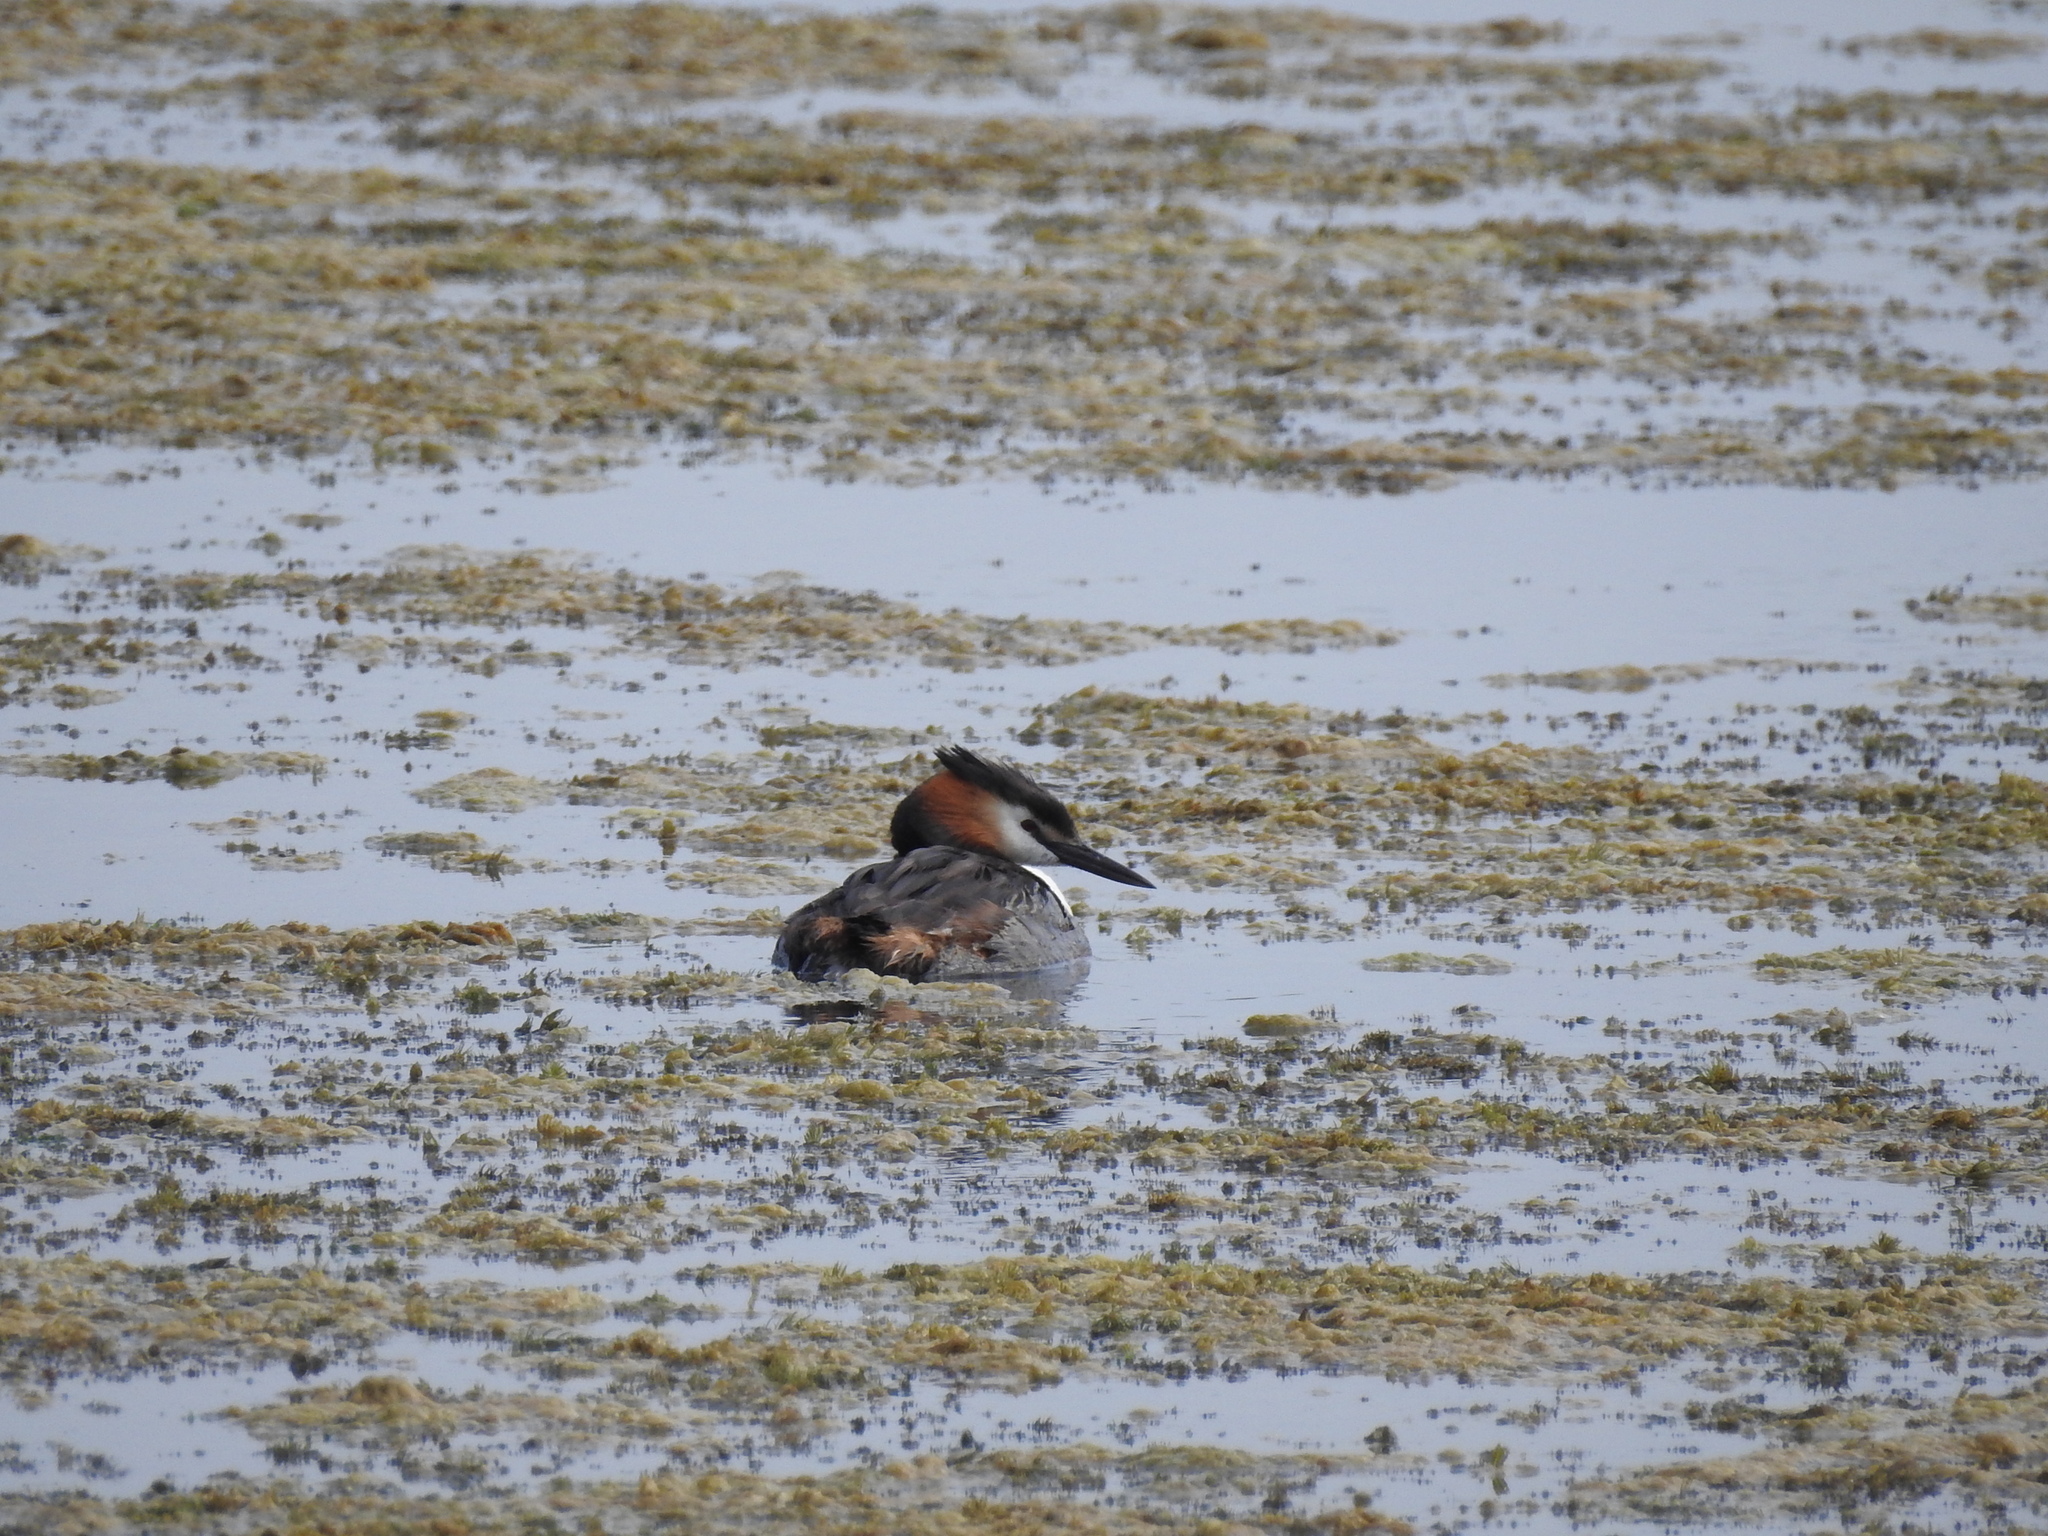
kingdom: Animalia
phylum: Chordata
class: Aves
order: Podicipediformes
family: Podicipedidae
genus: Podiceps
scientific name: Podiceps cristatus
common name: Great crested grebe
